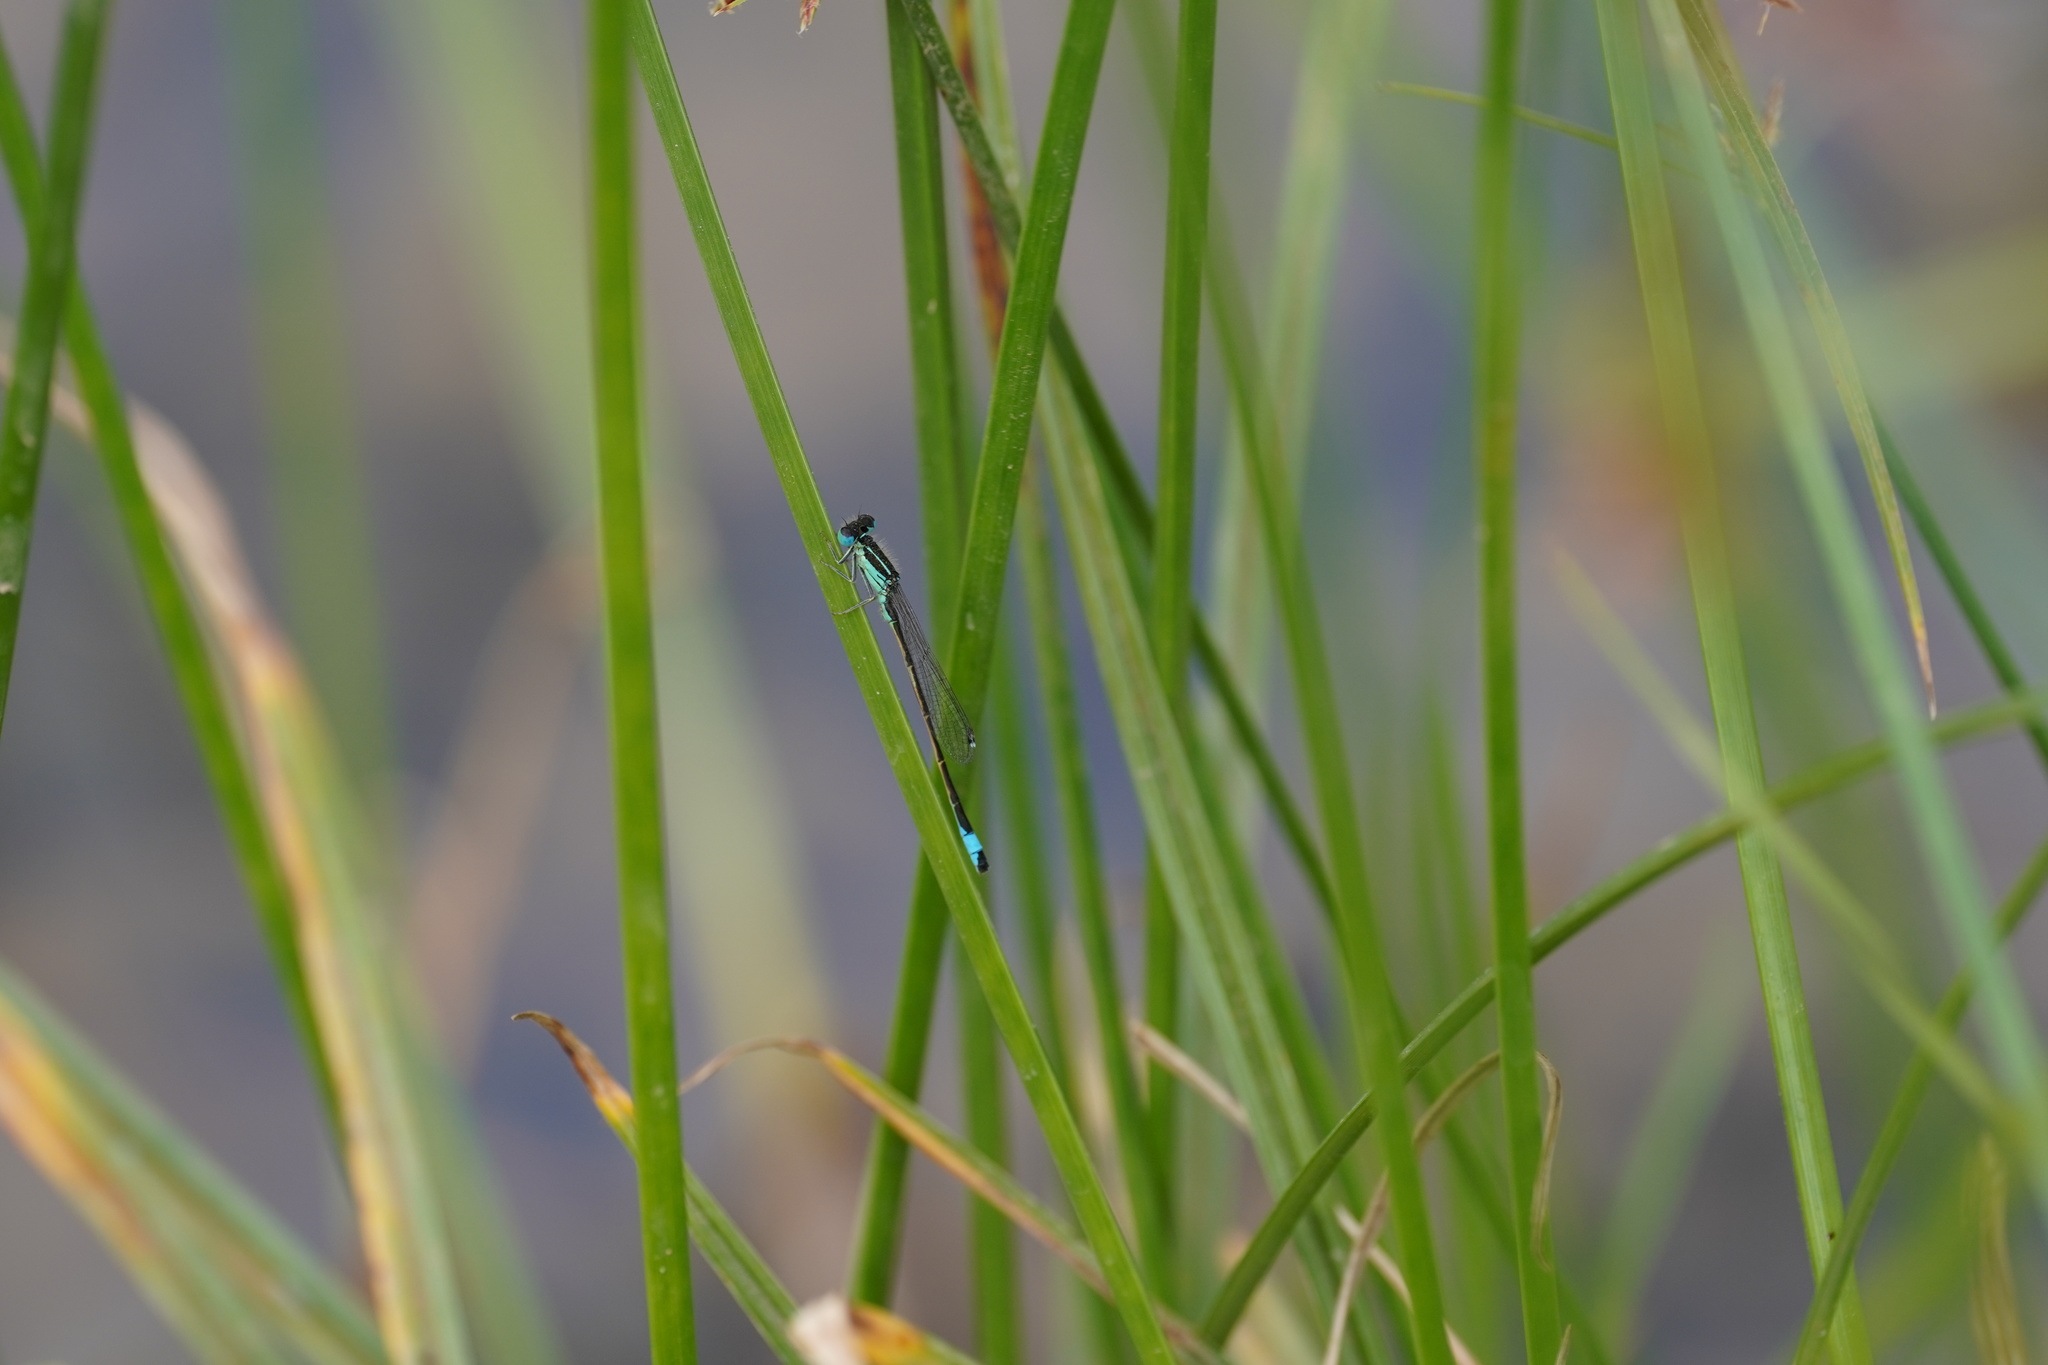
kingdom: Animalia
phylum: Arthropoda
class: Insecta
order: Odonata
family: Coenagrionidae
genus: Ischnura
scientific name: Ischnura graellsii
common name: Iberian bluetail
